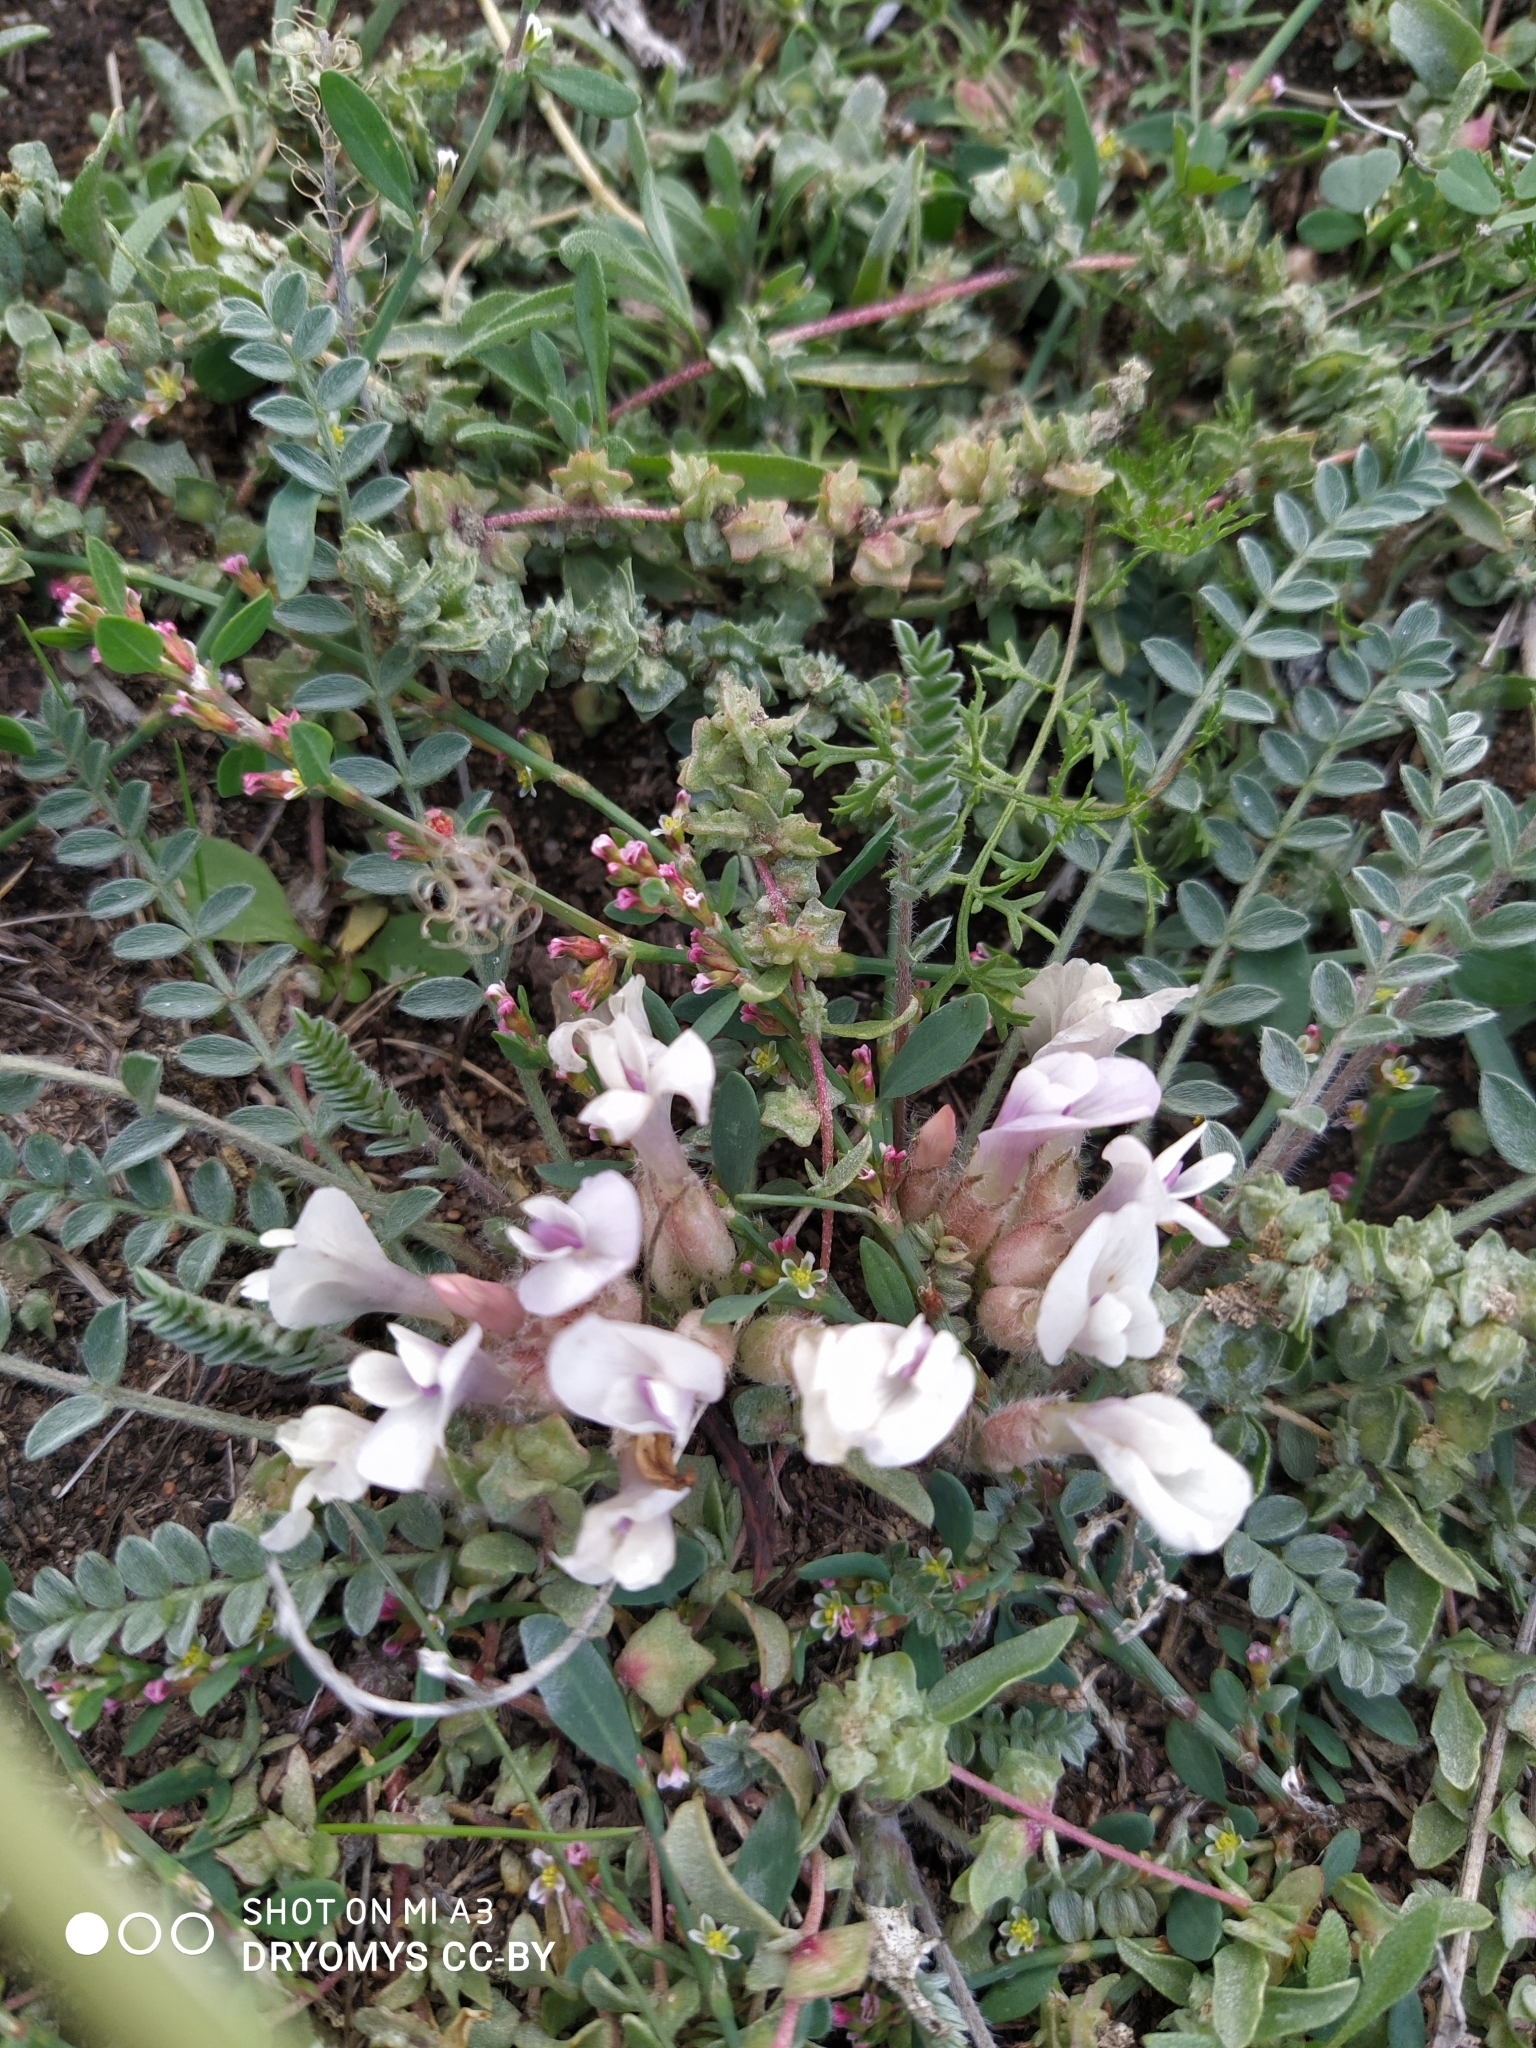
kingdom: Plantae
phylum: Tracheophyta
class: Magnoliopsida
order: Fabales
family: Fabaceae
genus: Astragalus
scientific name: Astragalus testiculatus
